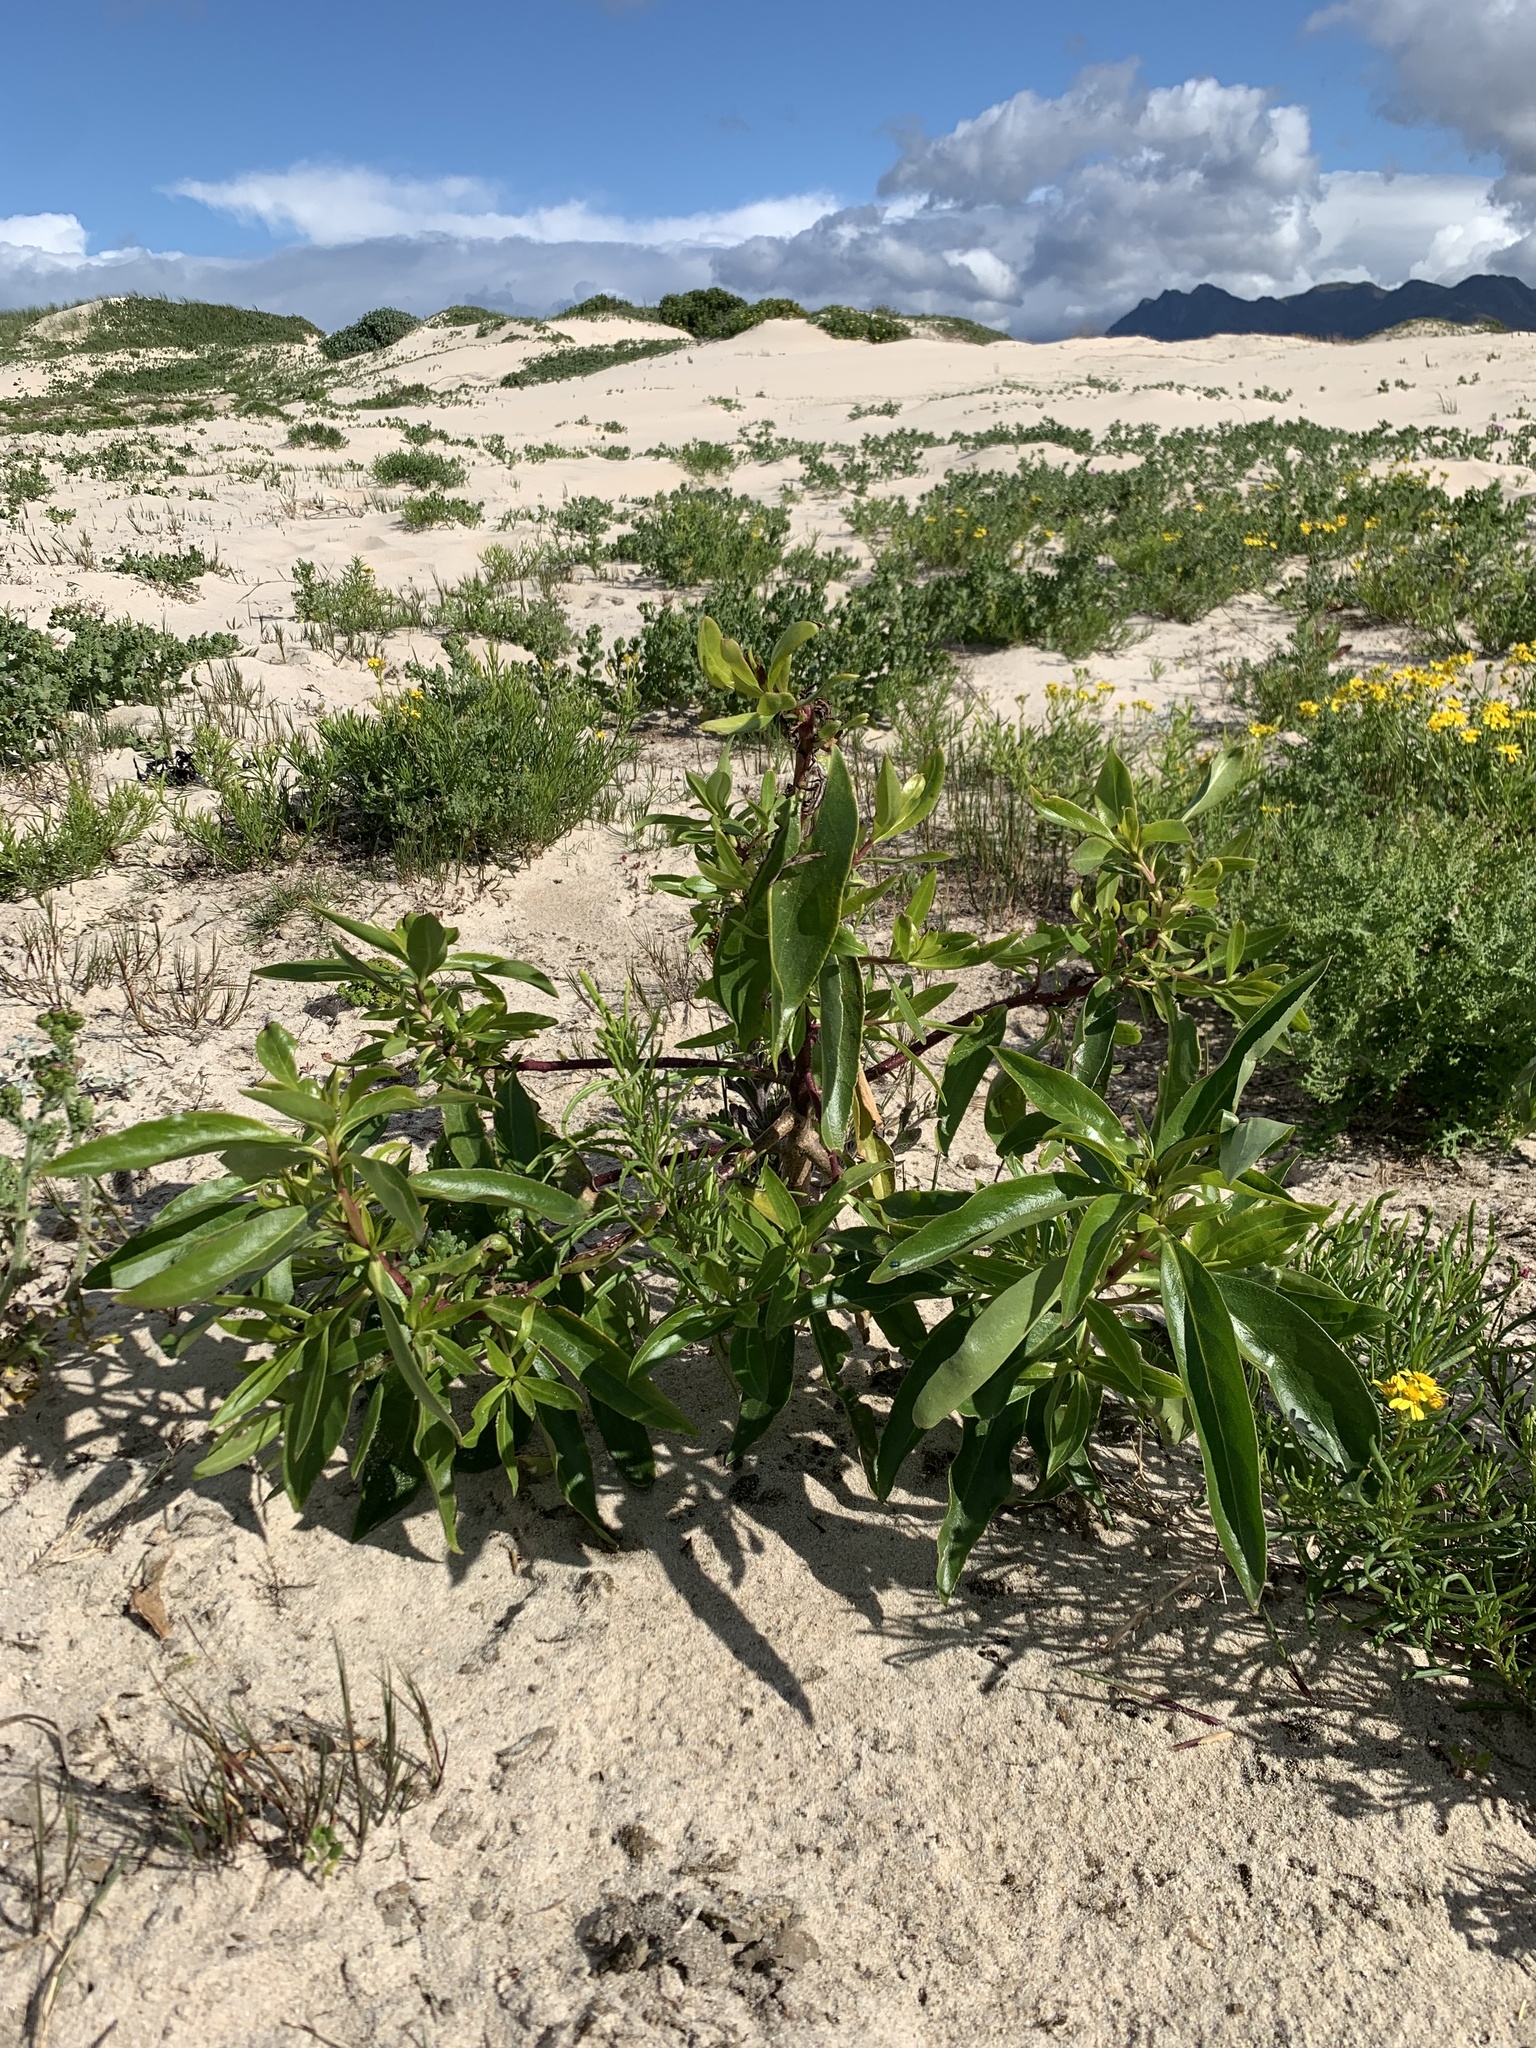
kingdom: Plantae
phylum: Tracheophyta
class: Magnoliopsida
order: Lamiales
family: Scrophulariaceae
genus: Myoporum
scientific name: Myoporum laetum
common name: Ngaio tree
